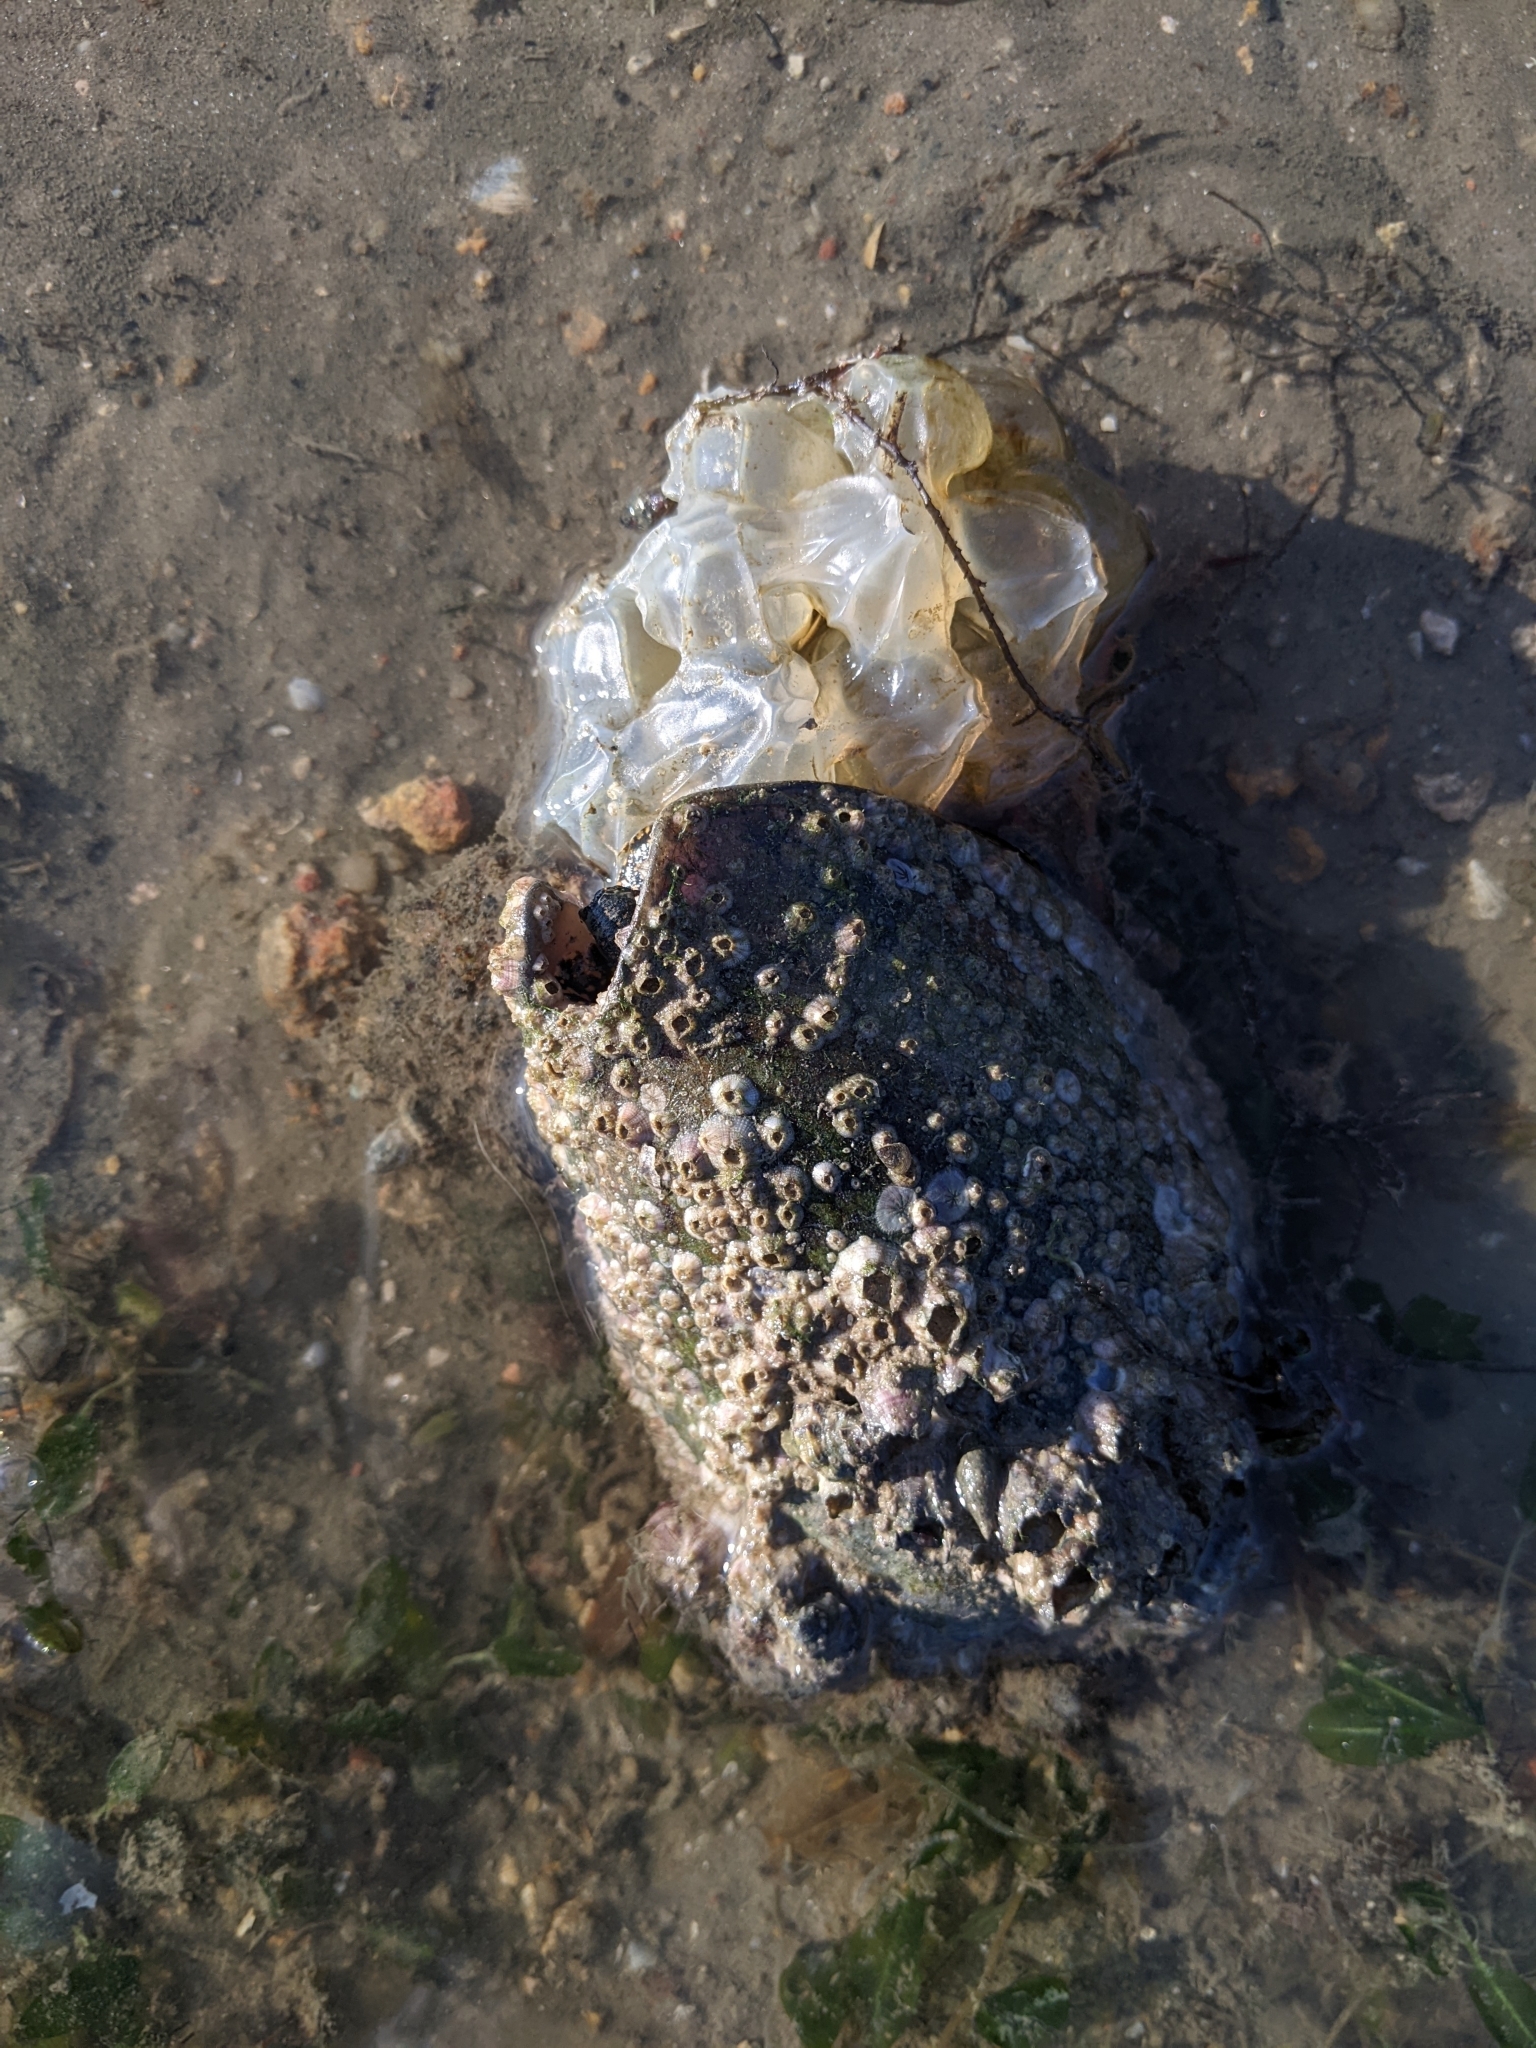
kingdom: Animalia
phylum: Mollusca
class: Gastropoda
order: Neogastropoda
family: Volutidae
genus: Cymbiola
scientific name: Cymbiola nobilis
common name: Noble volute
